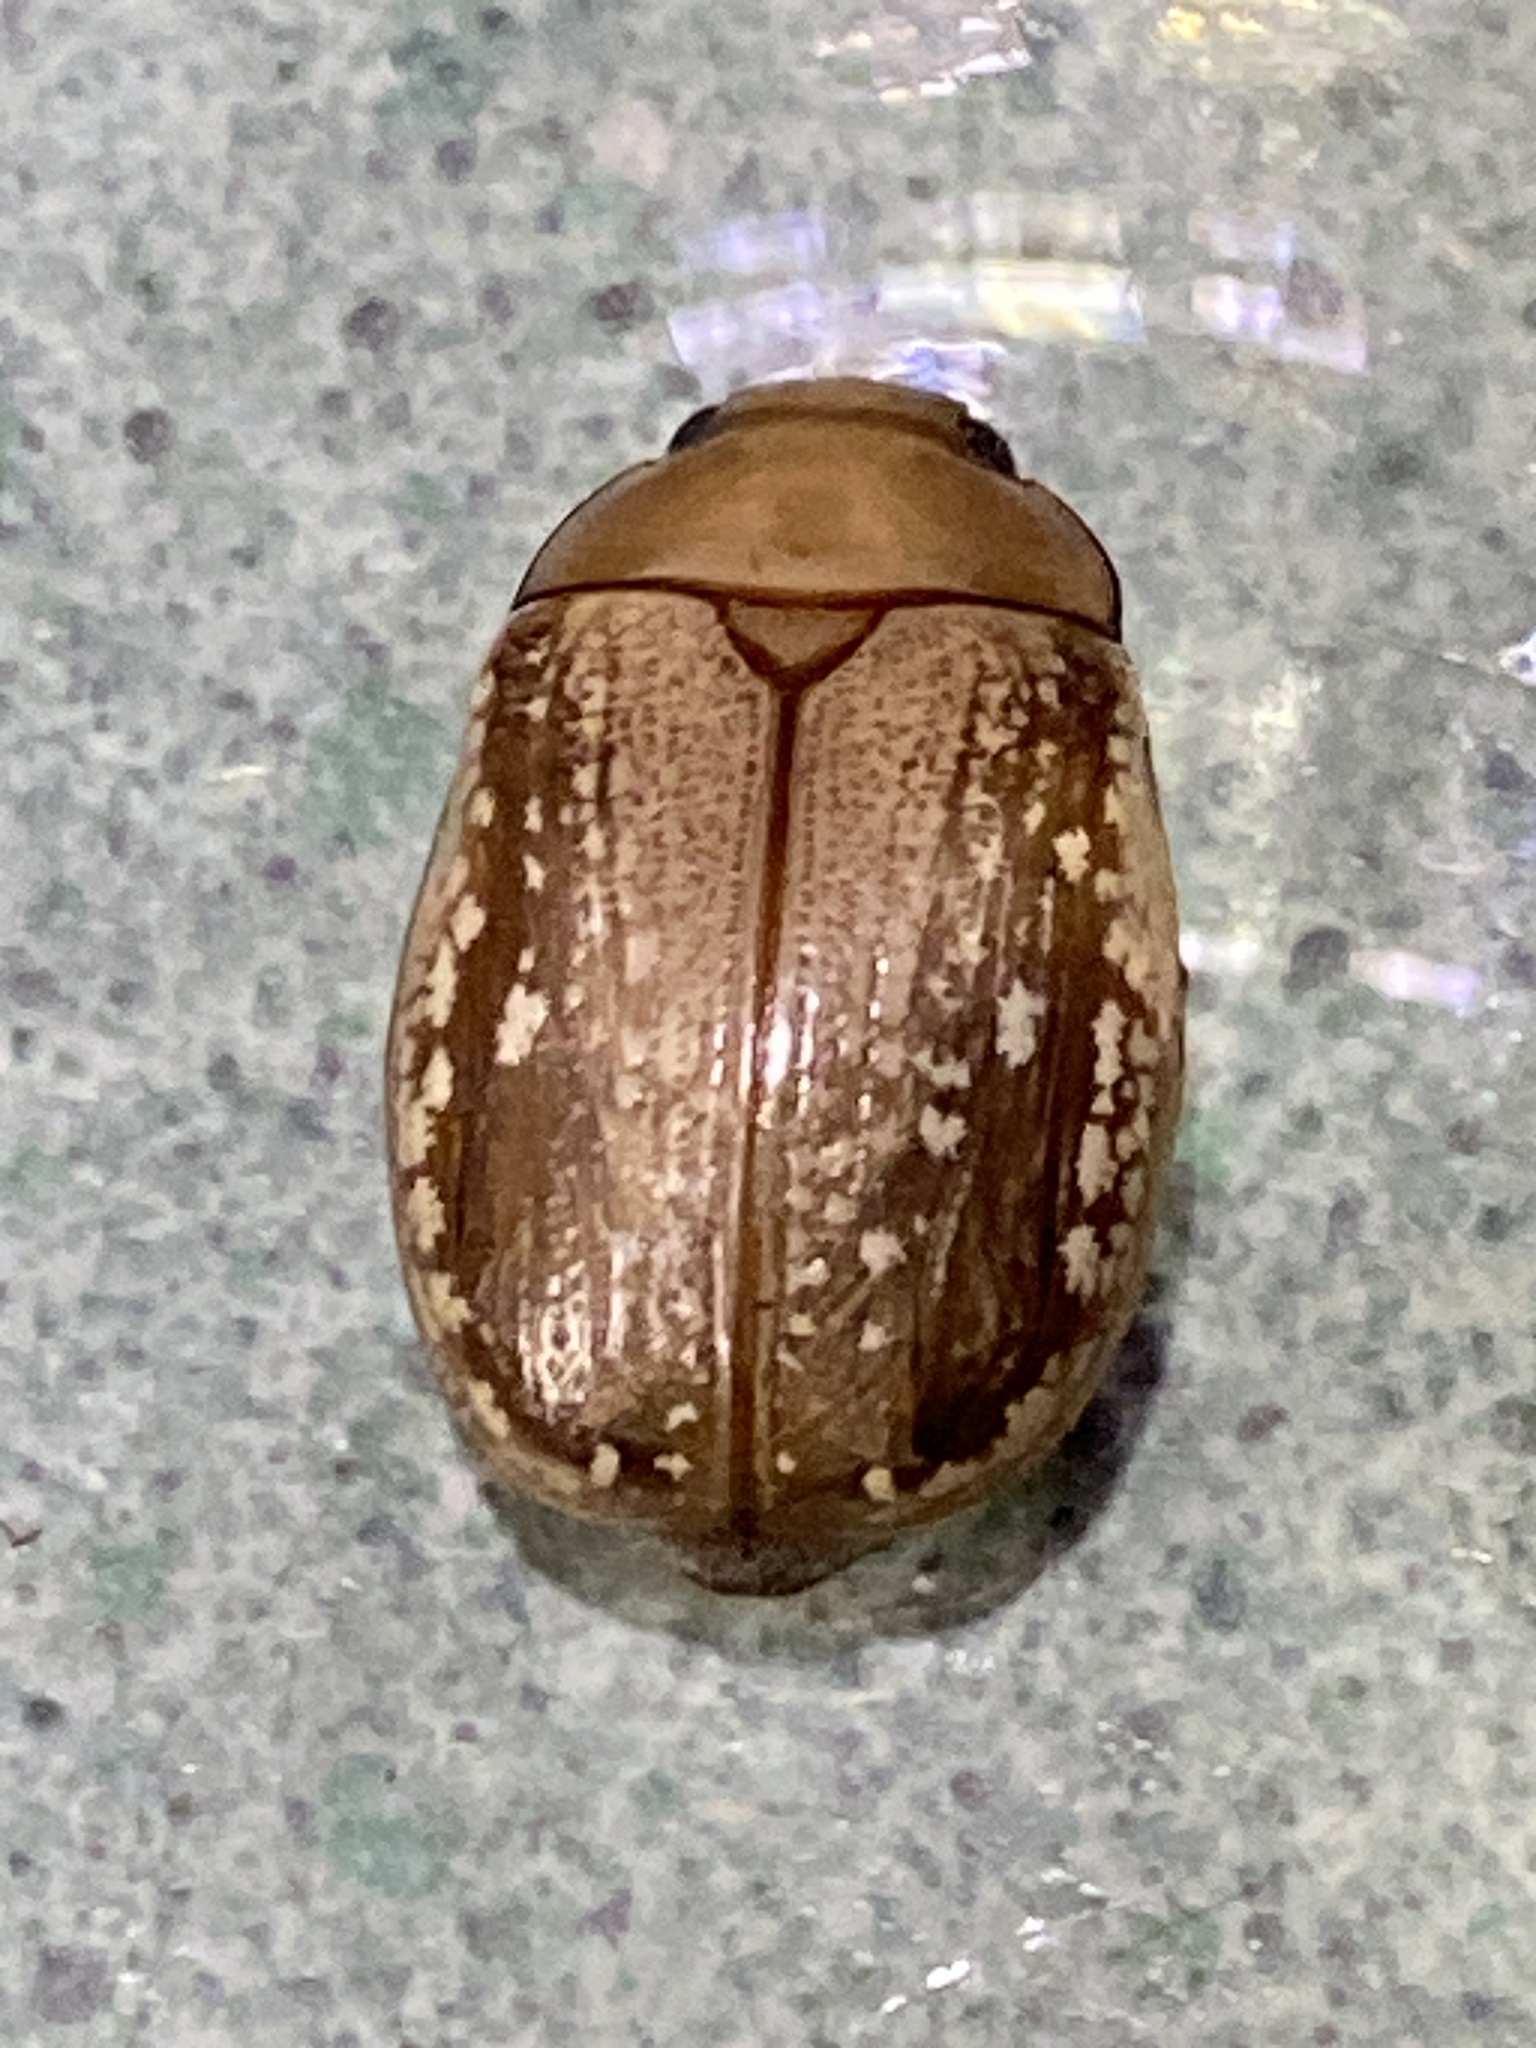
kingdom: Animalia
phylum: Arthropoda
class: Insecta
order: Coleoptera
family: Scarabaeidae
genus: Anoplognathus
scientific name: Anoplognathus concolor
